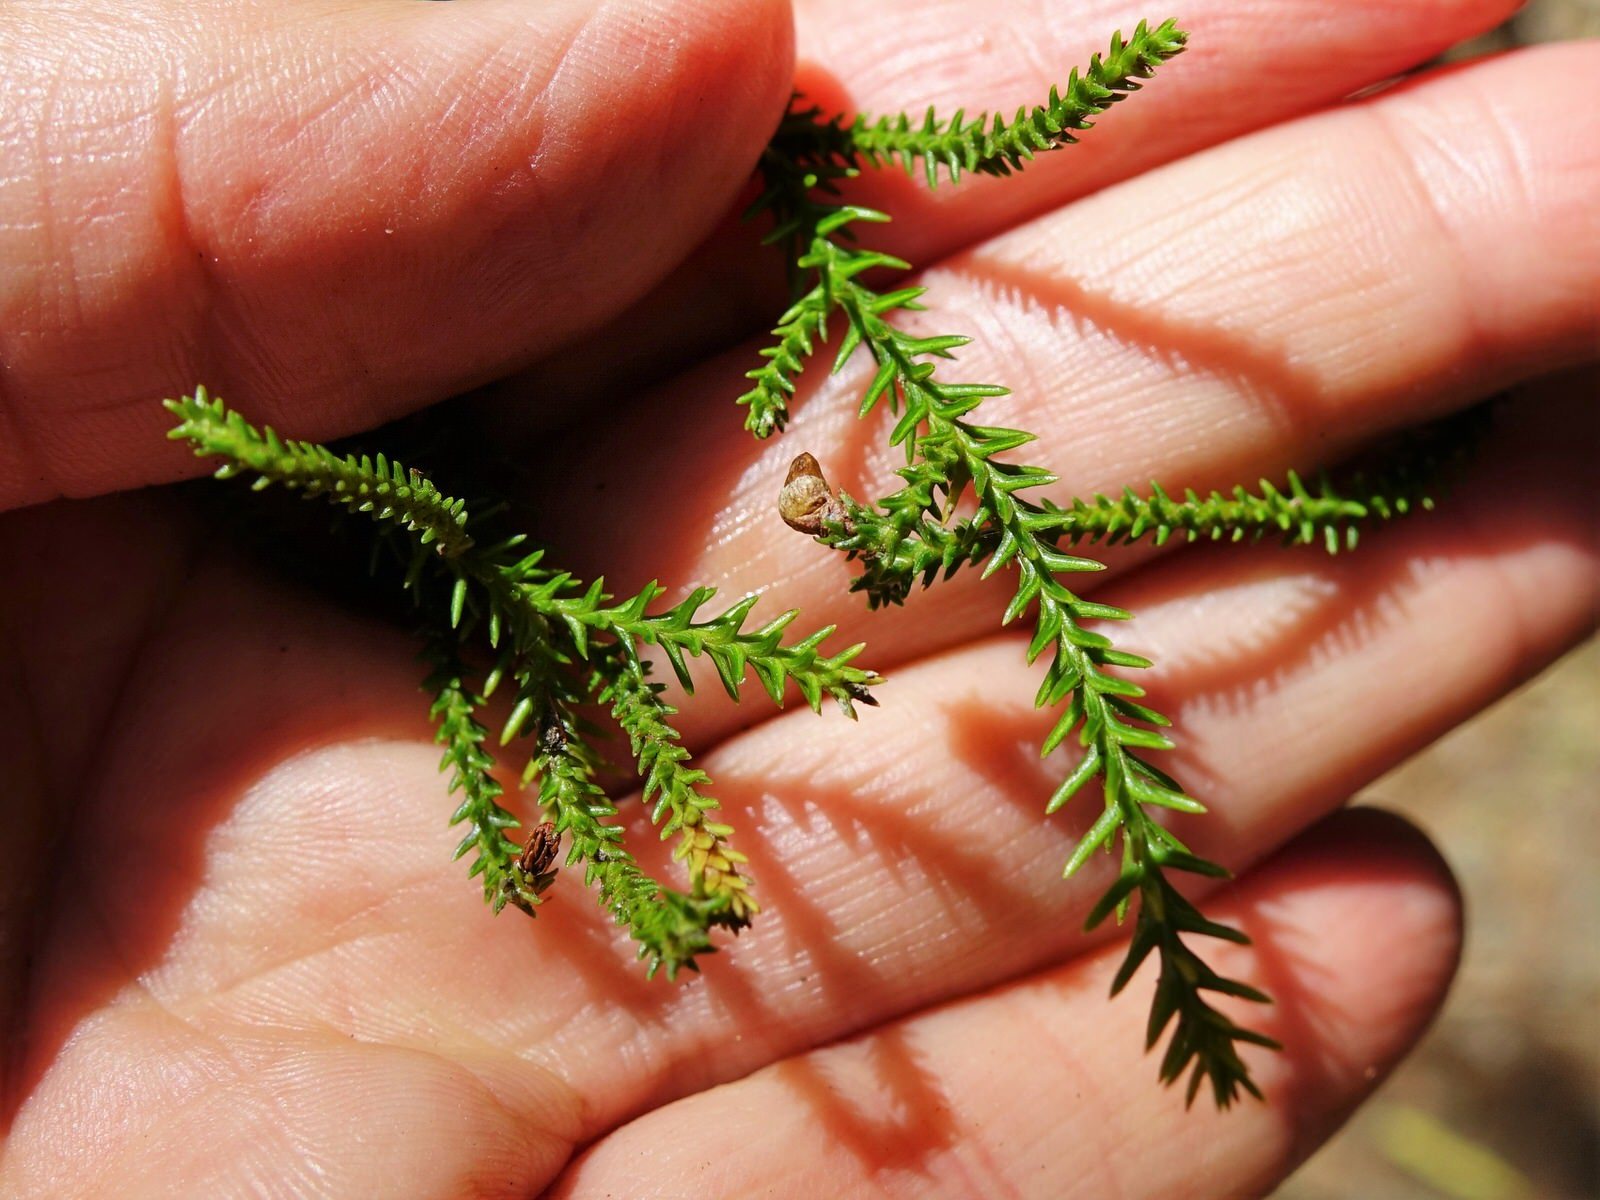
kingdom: Plantae
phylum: Tracheophyta
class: Pinopsida
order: Pinales
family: Podocarpaceae
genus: Dacrydium
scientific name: Dacrydium cupressinum
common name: Red pine
